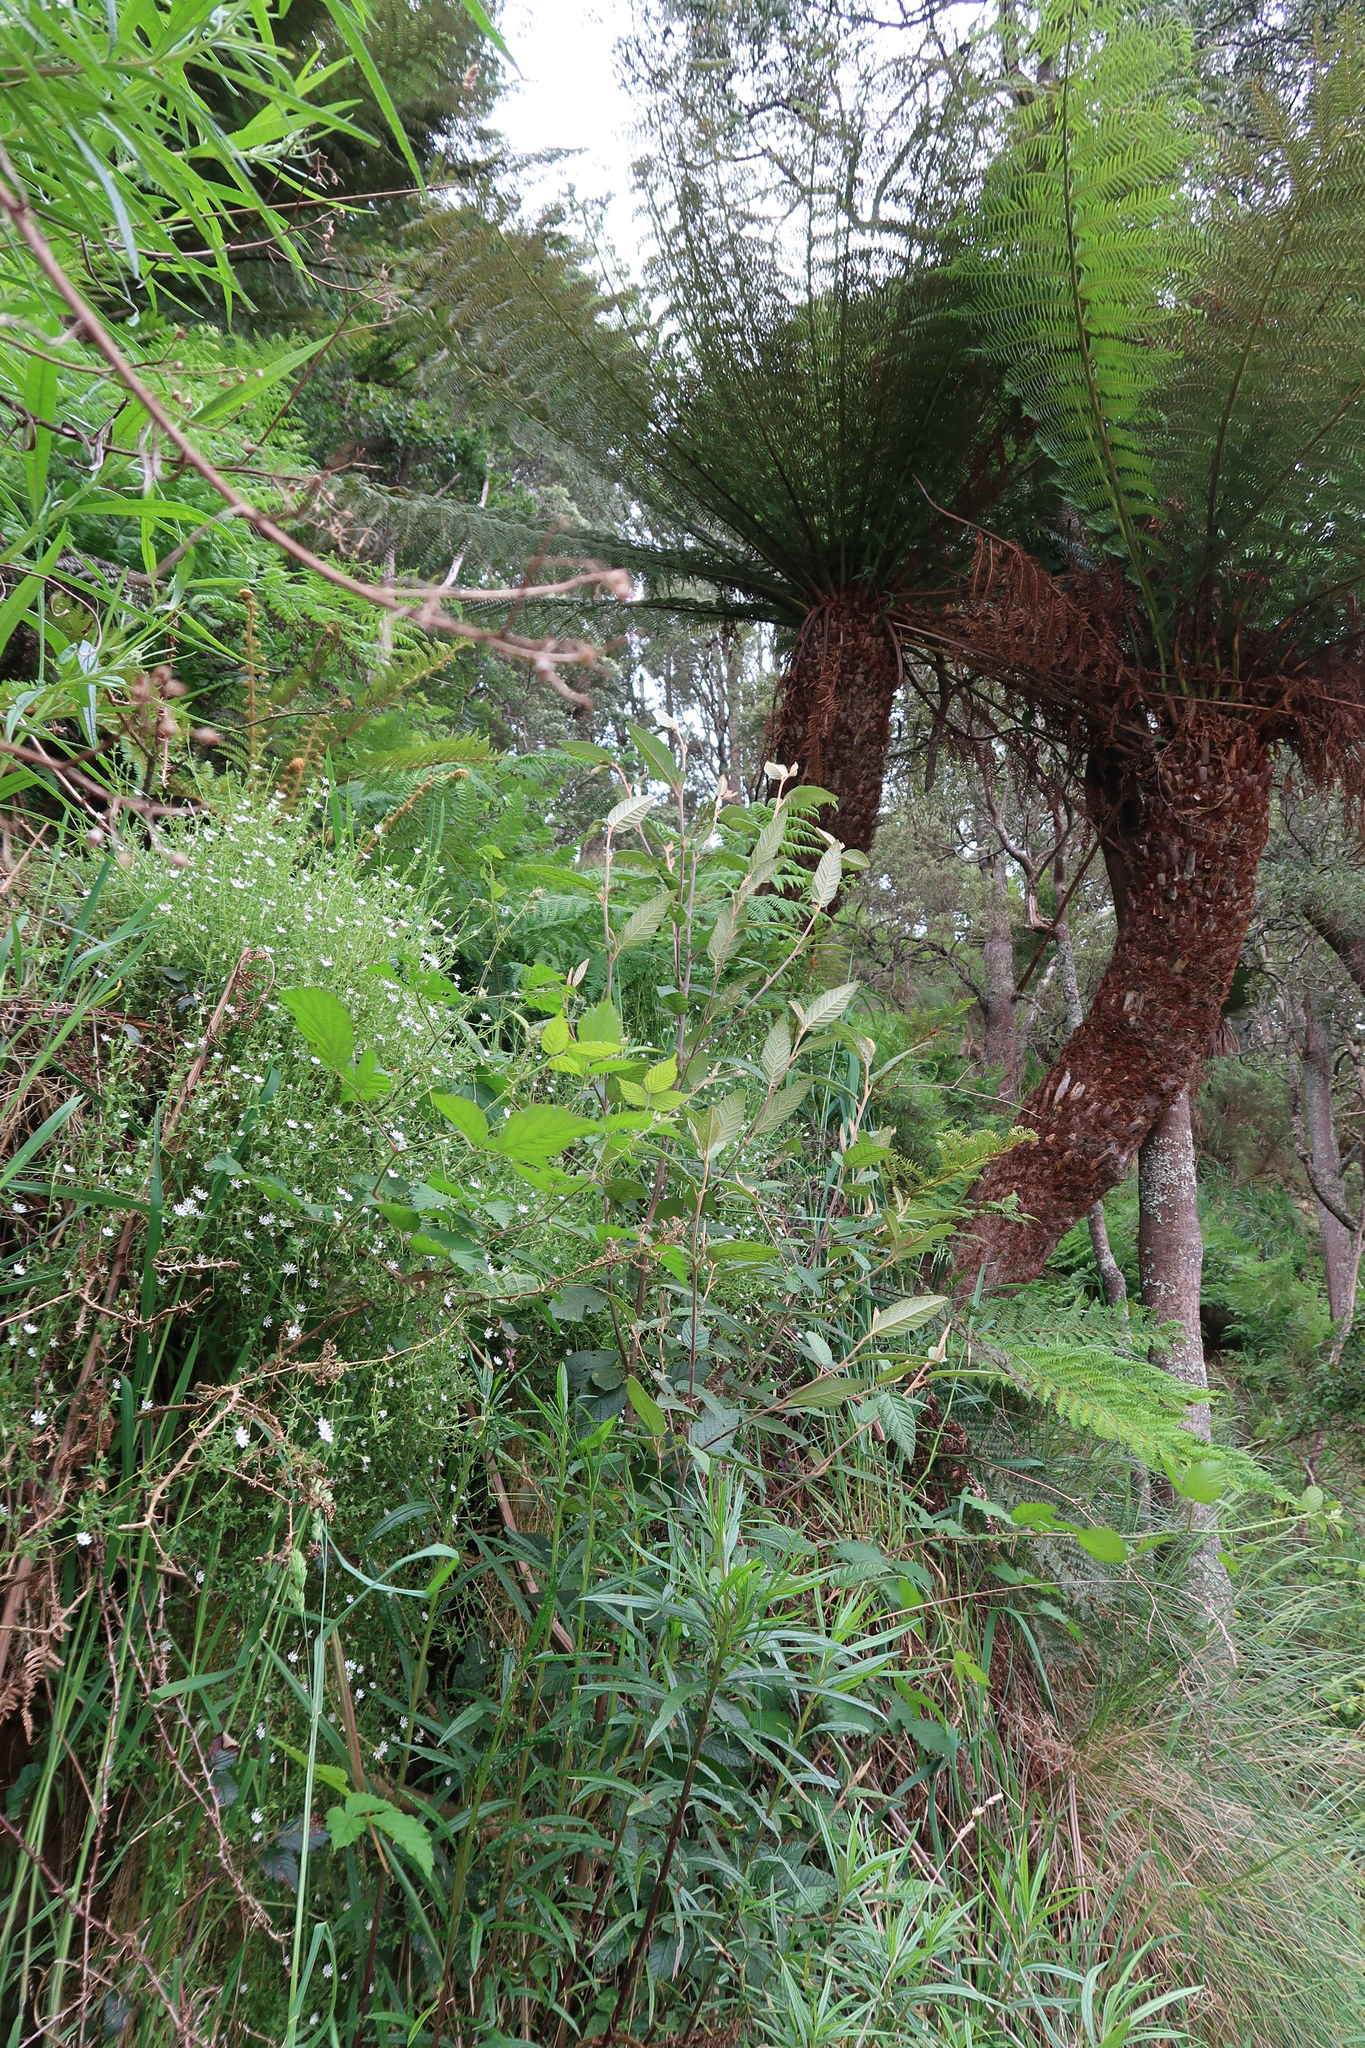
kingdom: Plantae
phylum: Tracheophyta
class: Magnoliopsida
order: Caryophyllales
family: Caryophyllaceae
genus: Stellaria
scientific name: Stellaria flaccida
